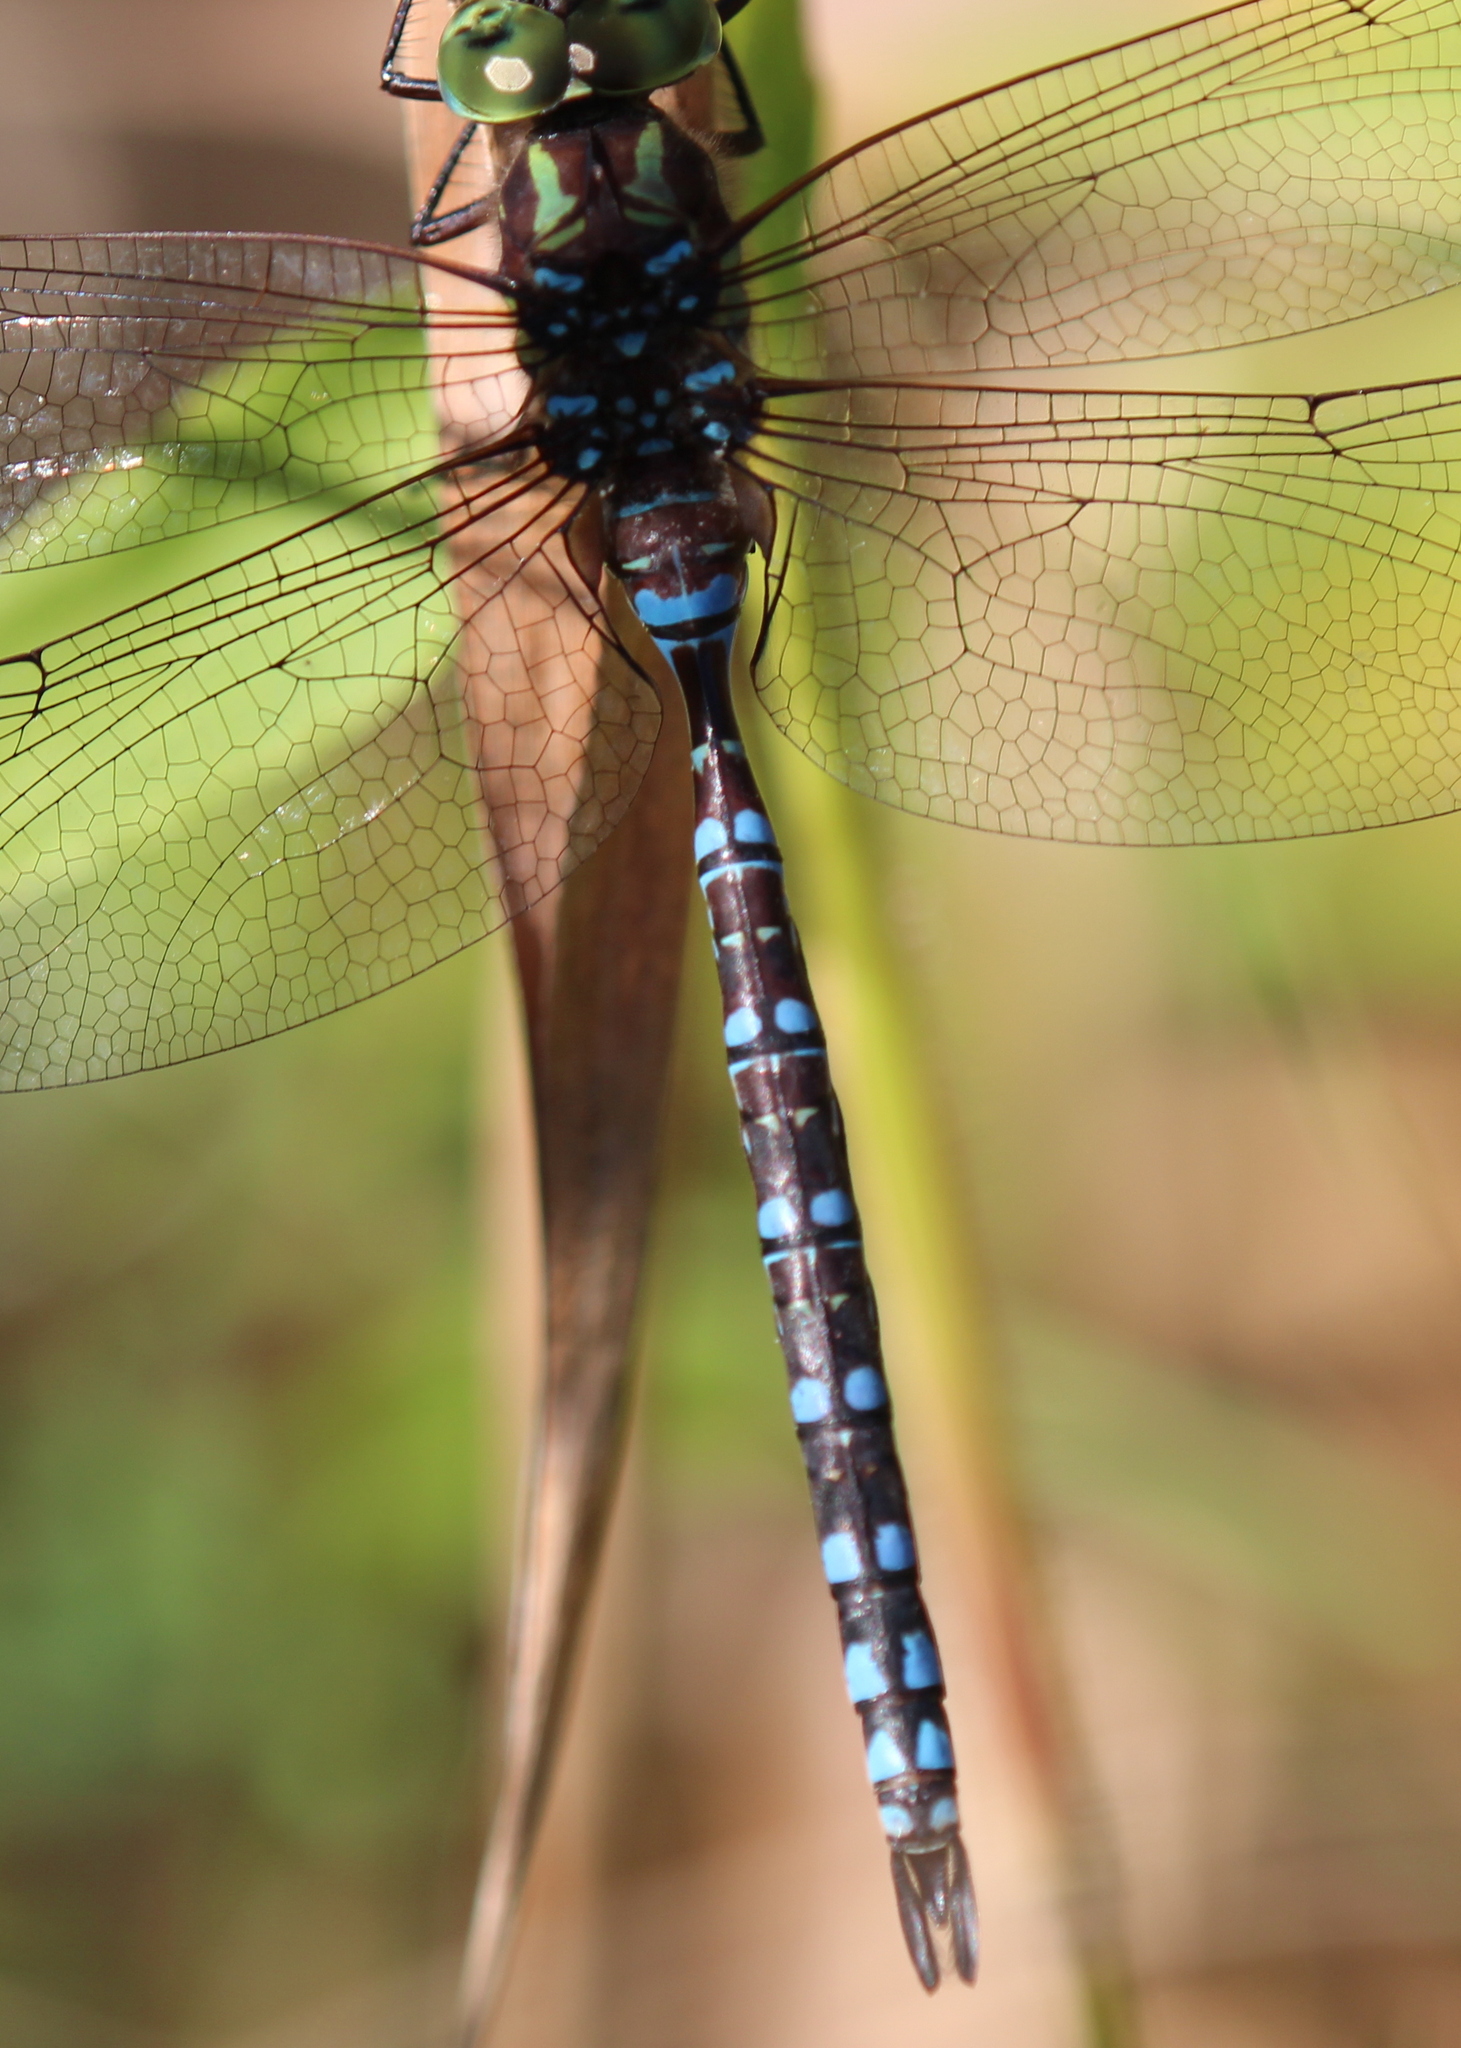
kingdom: Animalia
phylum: Arthropoda
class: Insecta
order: Odonata
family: Aeshnidae
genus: Aeshna
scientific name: Aeshna verticalis
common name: Green-striped darner
